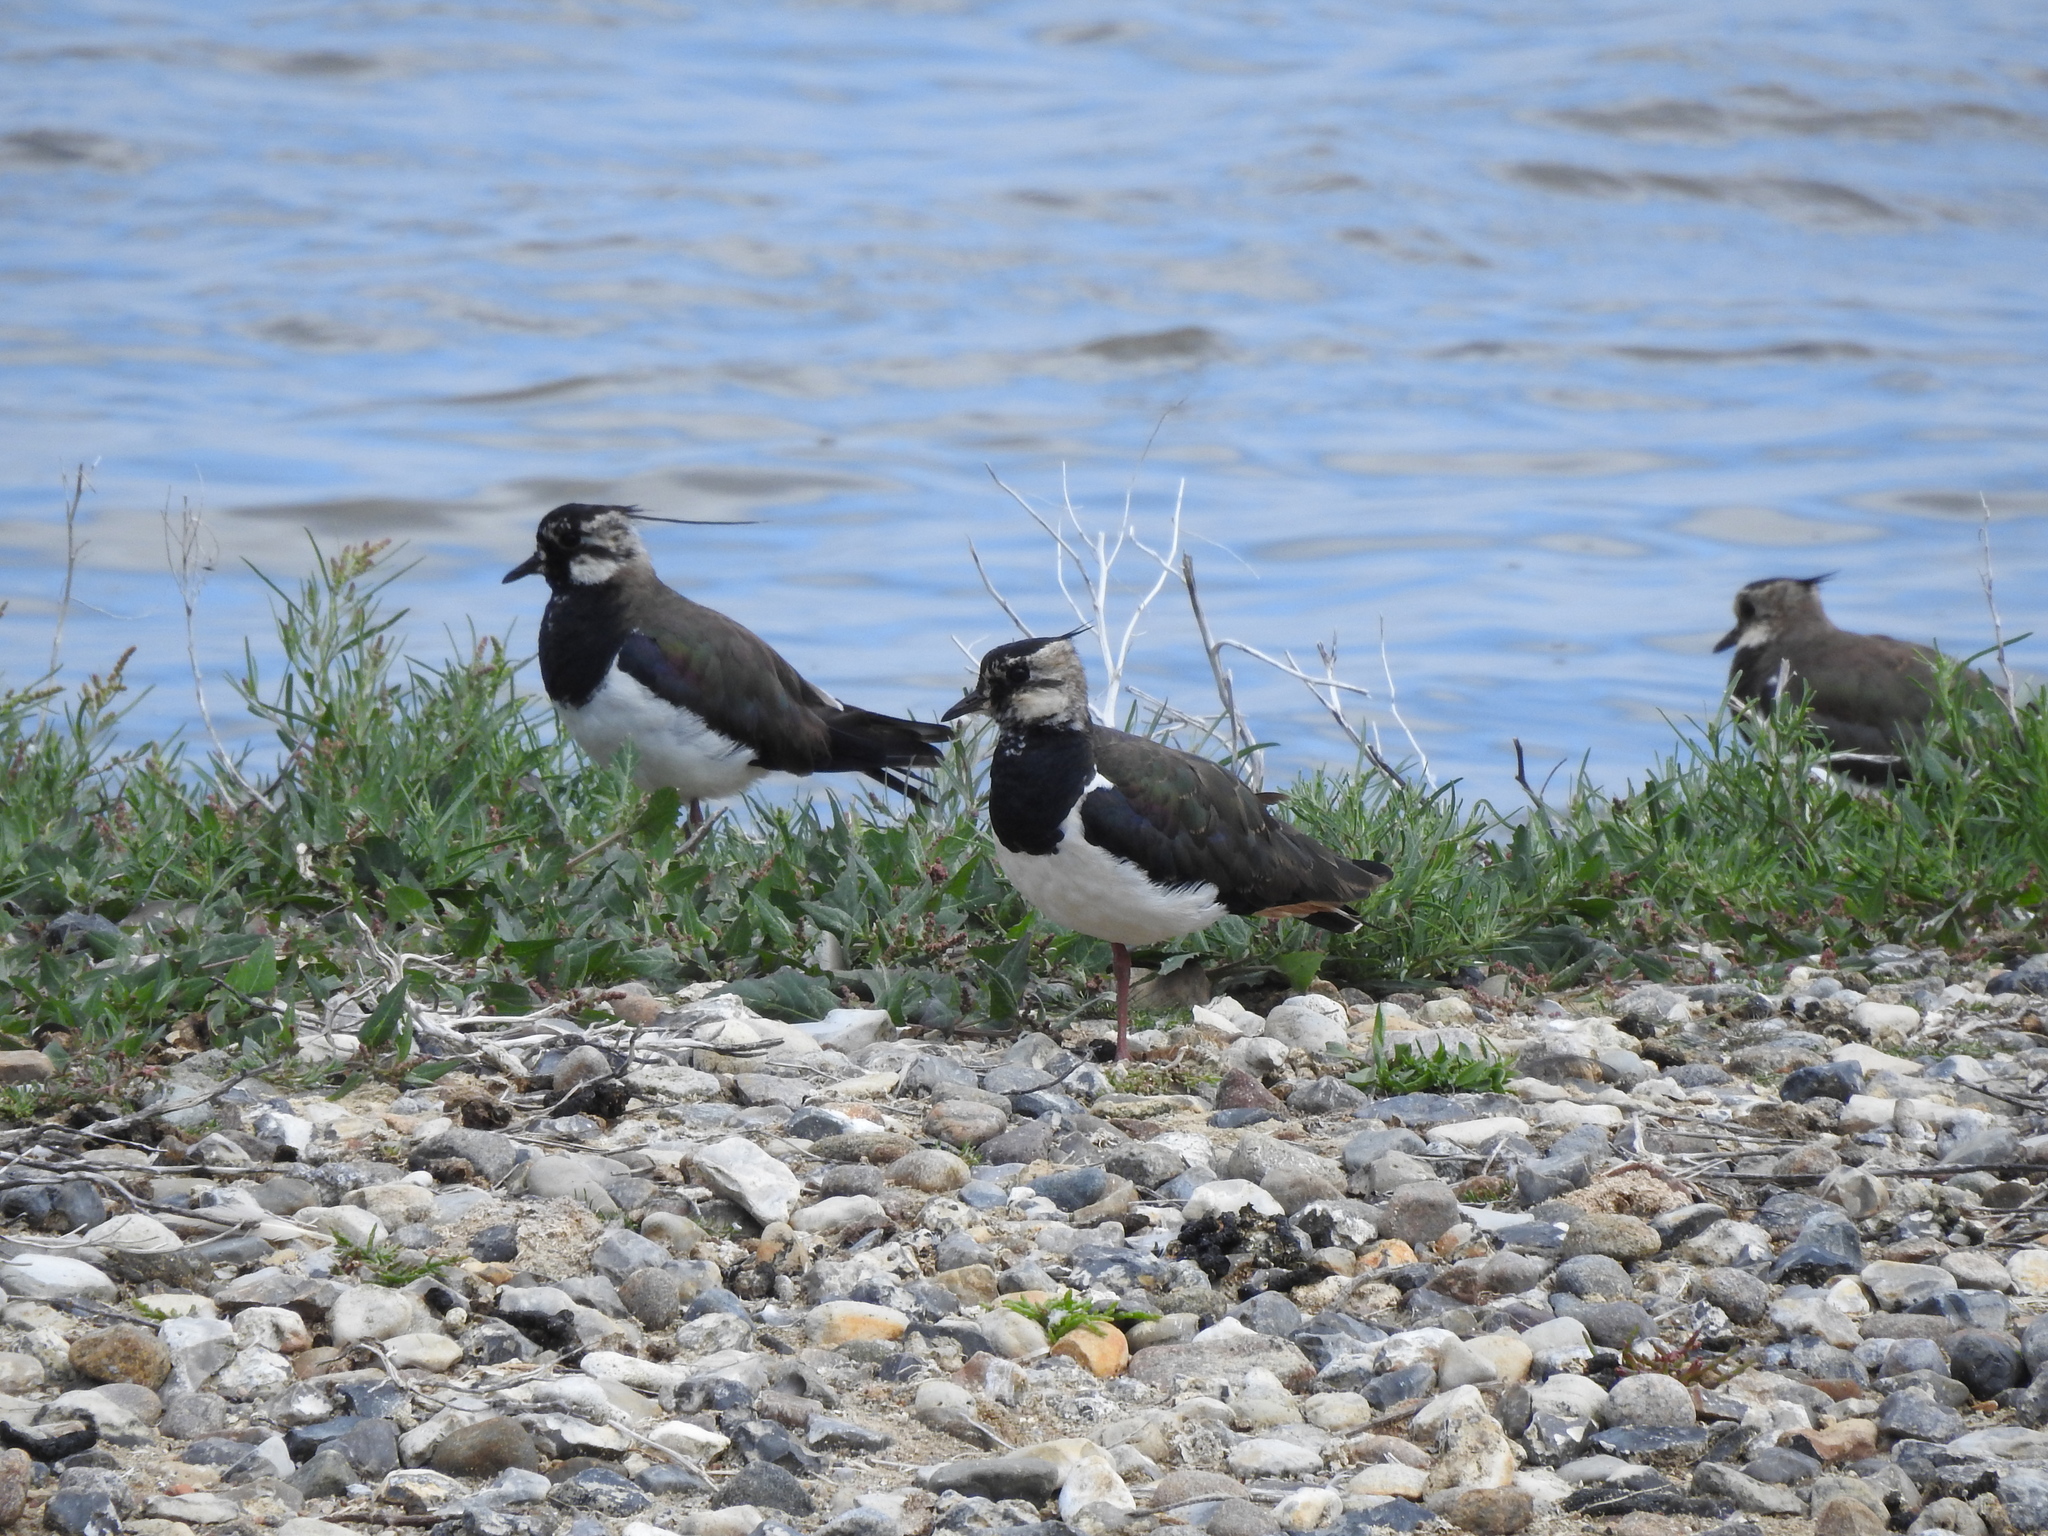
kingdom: Animalia
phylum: Chordata
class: Aves
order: Charadriiformes
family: Charadriidae
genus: Vanellus
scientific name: Vanellus vanellus
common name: Northern lapwing
